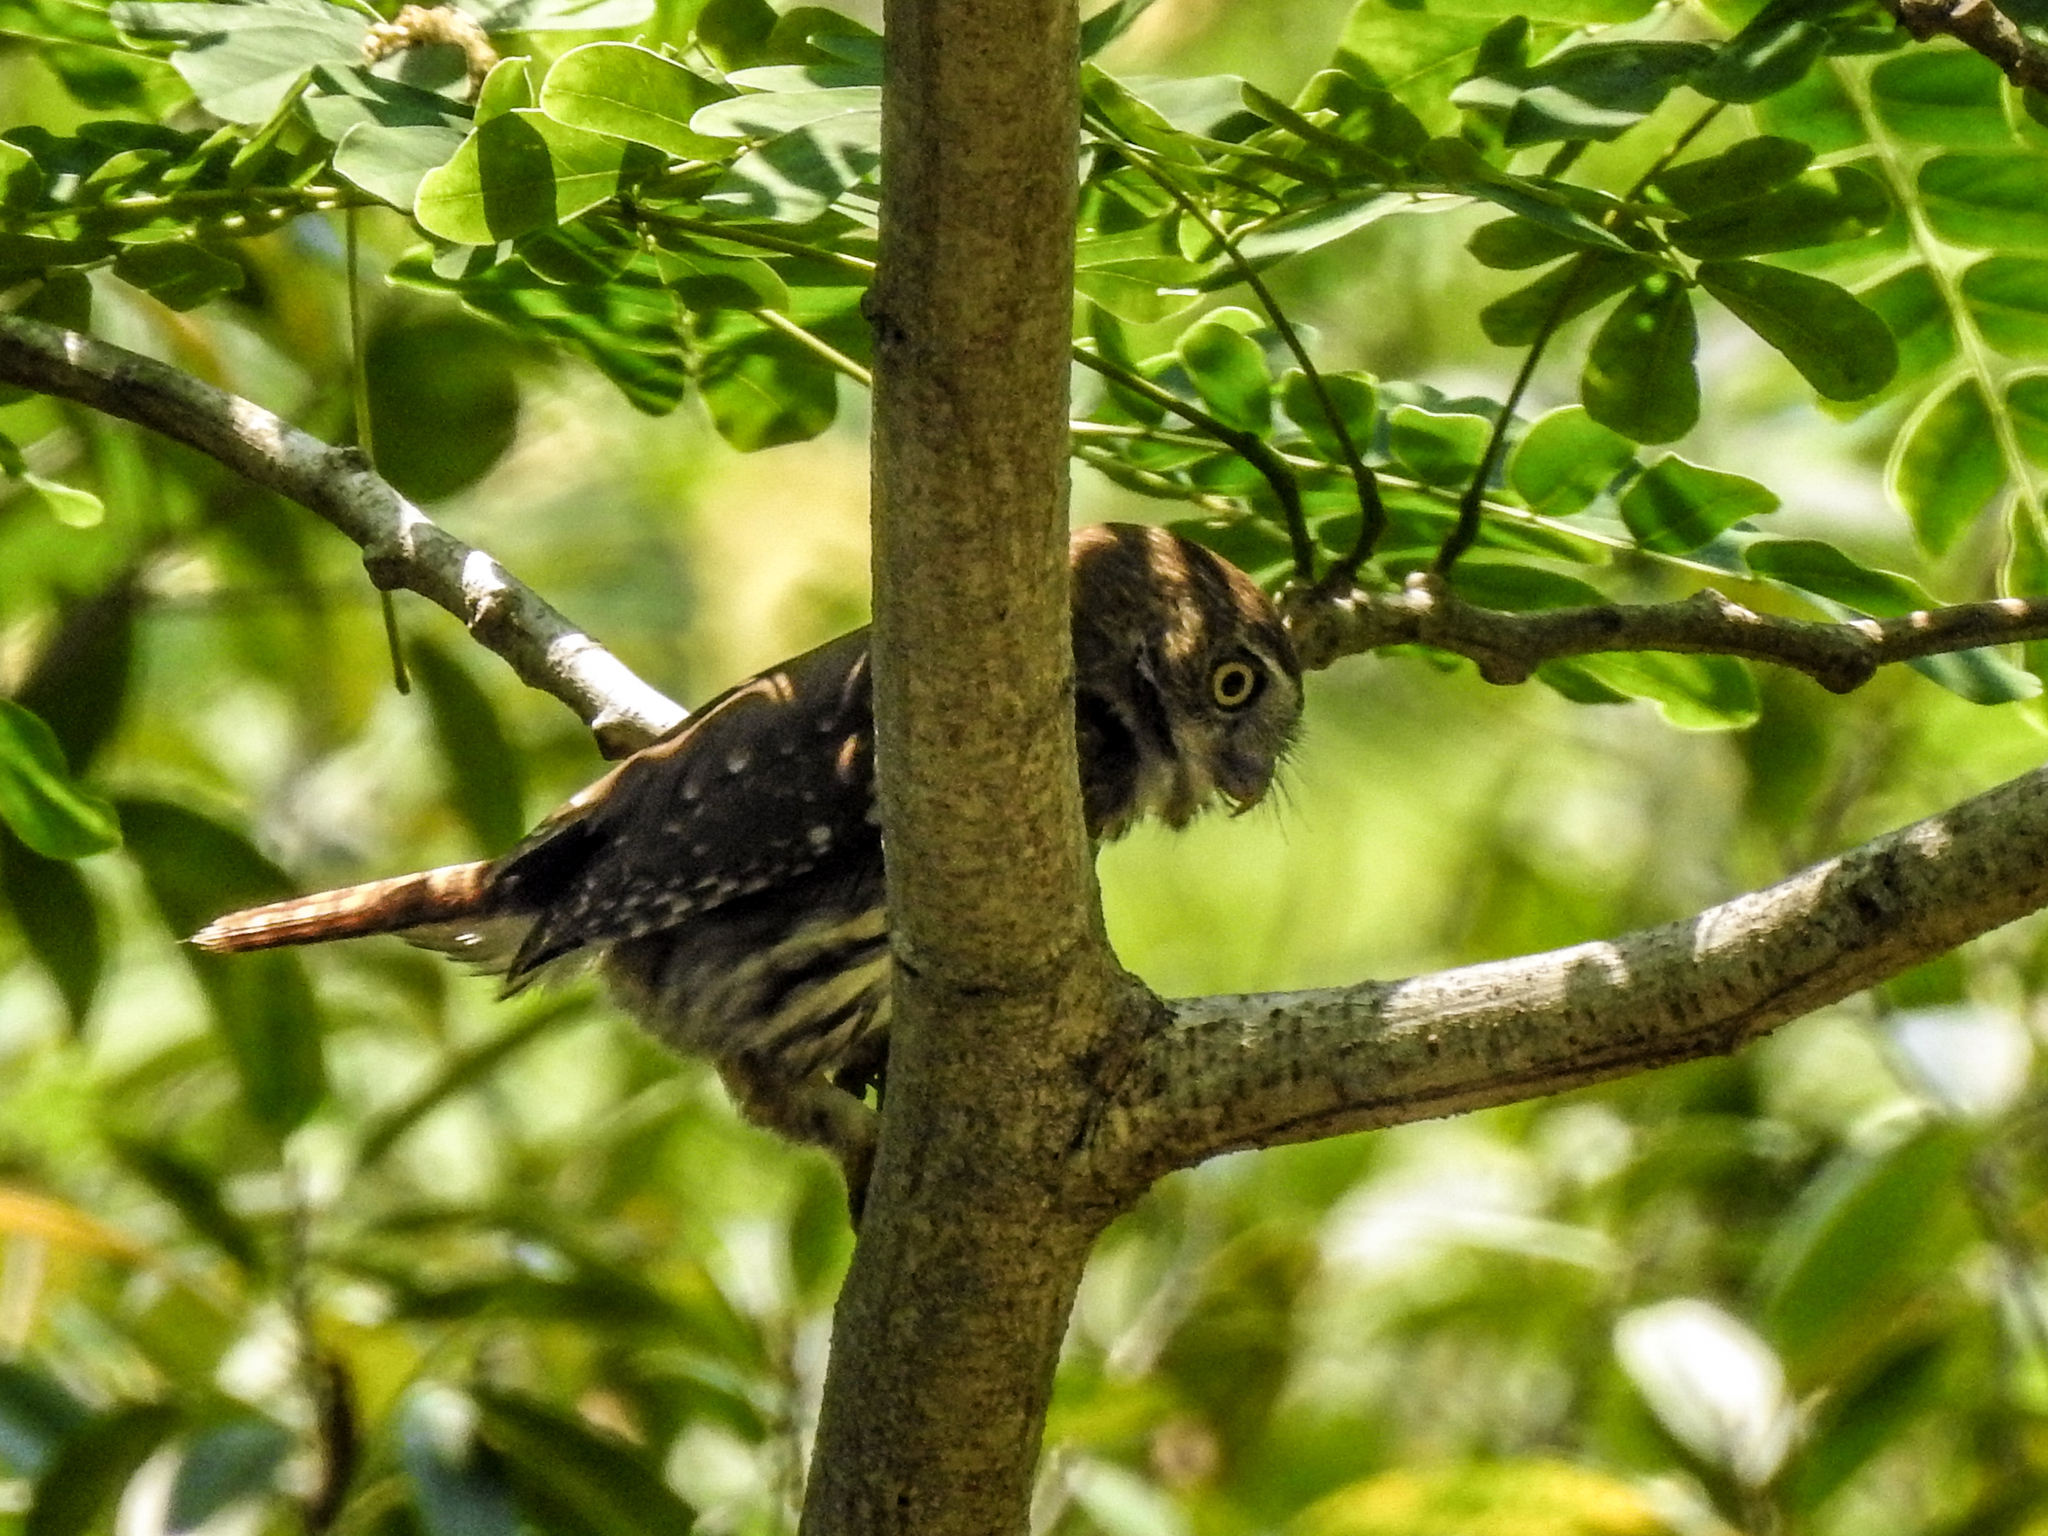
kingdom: Animalia
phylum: Chordata
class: Aves
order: Strigiformes
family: Strigidae
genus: Glaucidium
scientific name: Glaucidium brasilianum
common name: Ferruginous pygmy-owl
